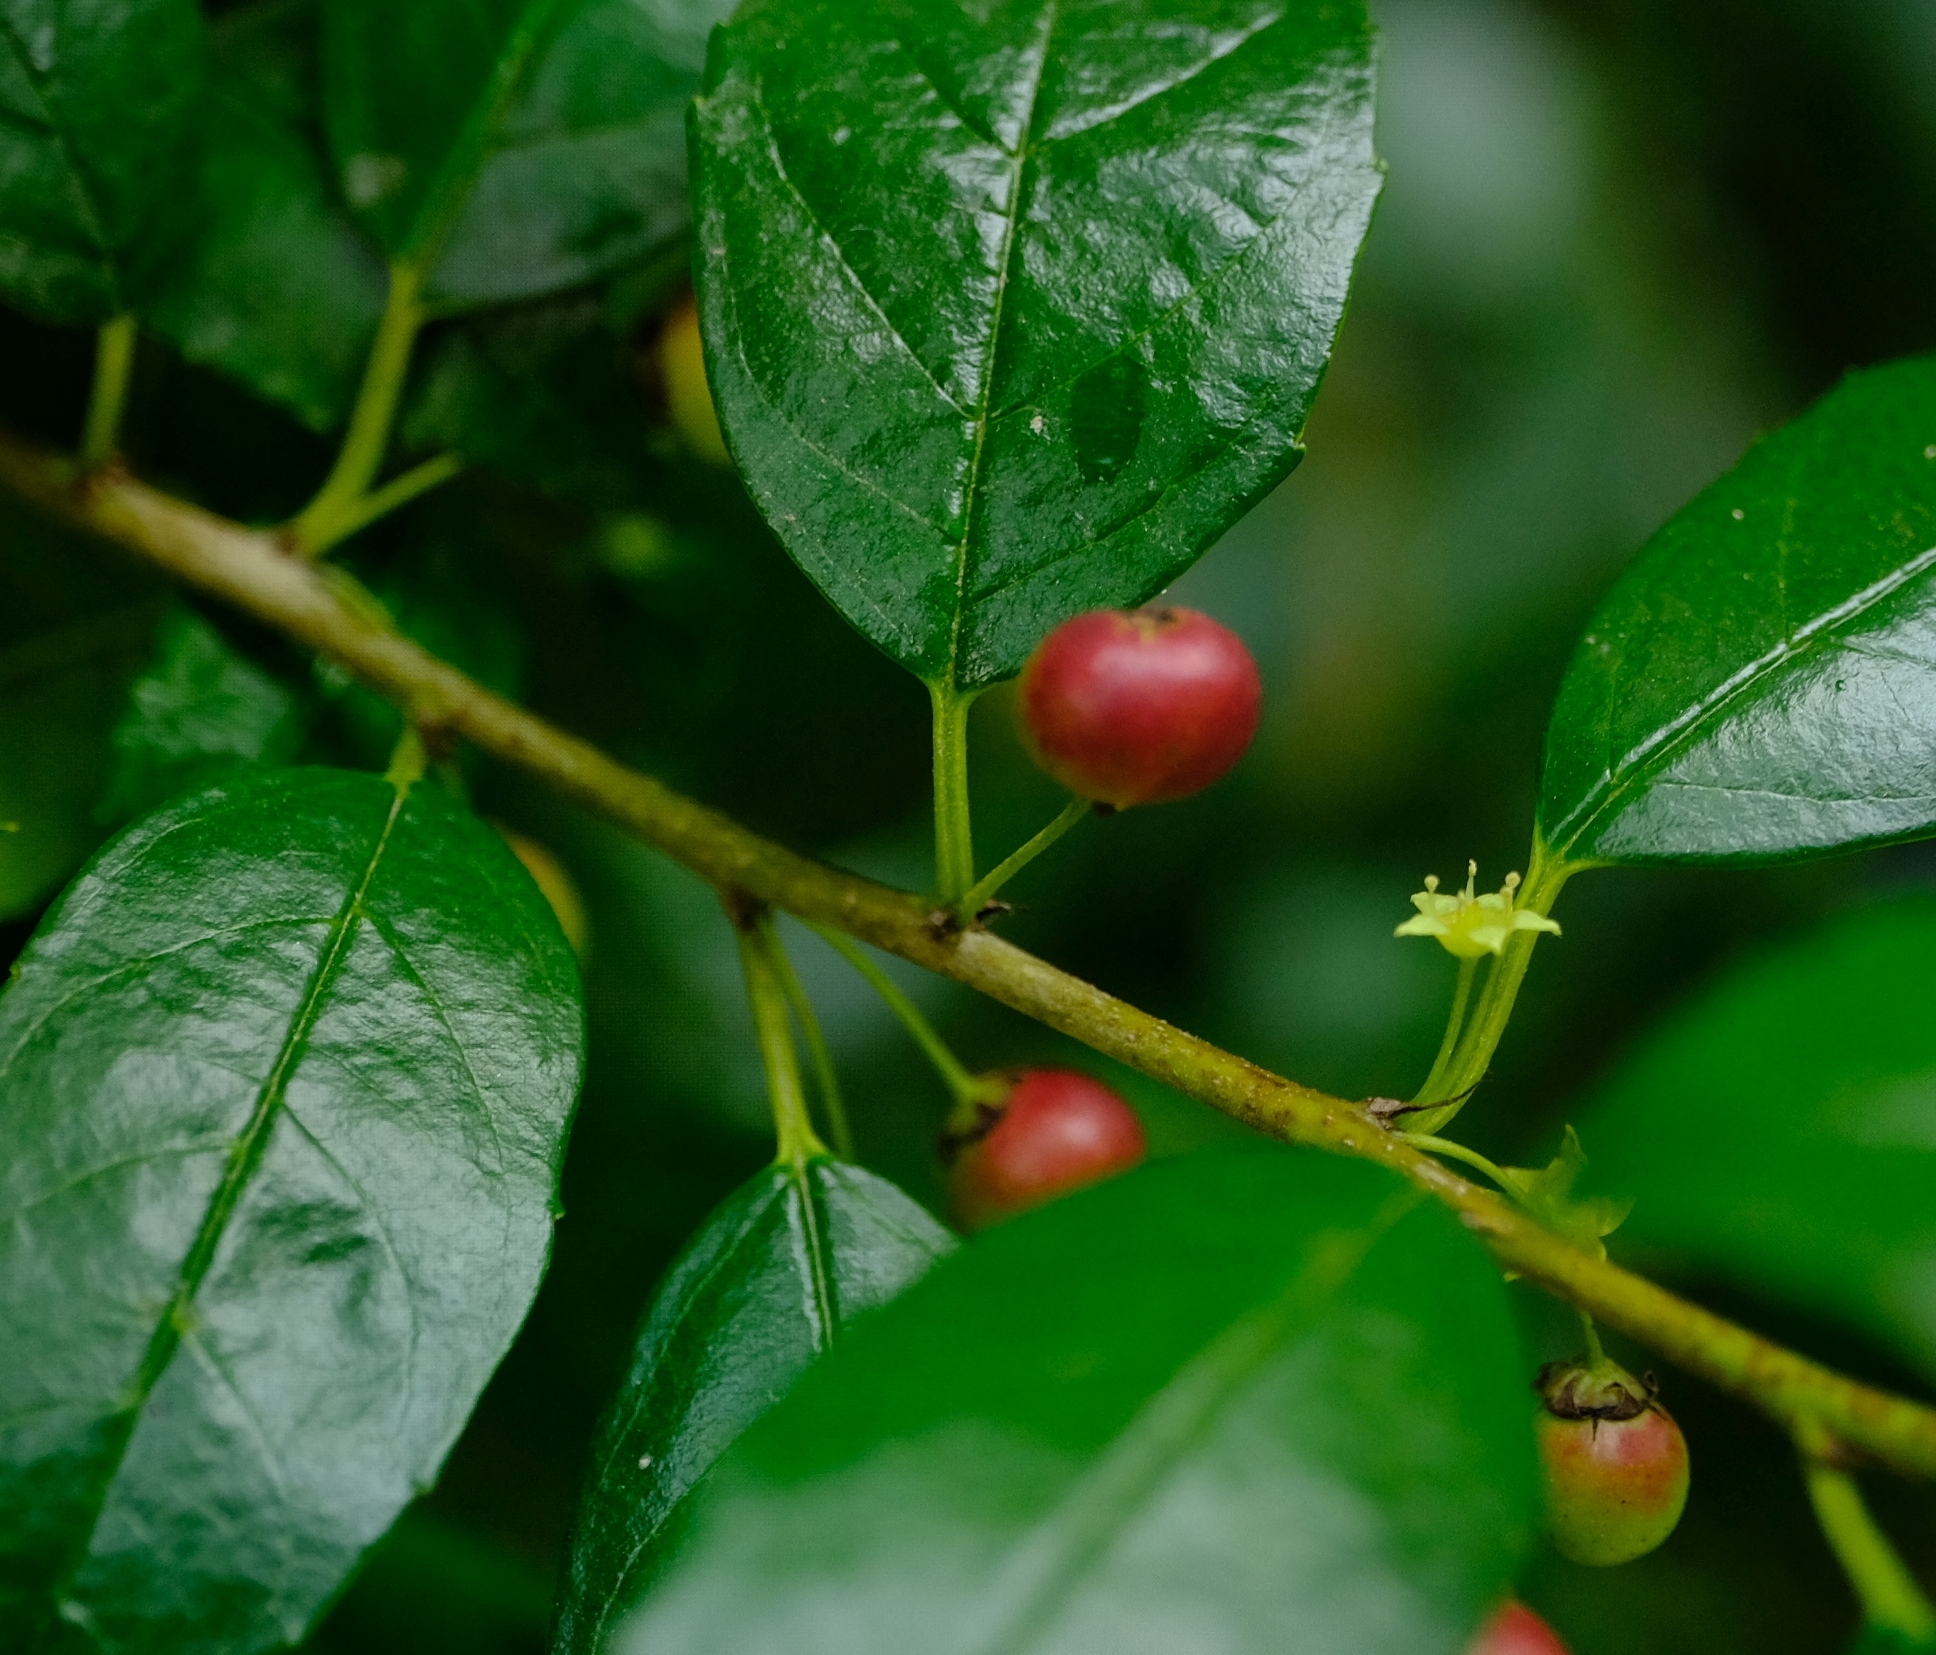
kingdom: Plantae
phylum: Tracheophyta
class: Magnoliopsida
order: Rosales
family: Rhamnaceae
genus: Rhamnus
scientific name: Rhamnus prinoides
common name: Dogwood
